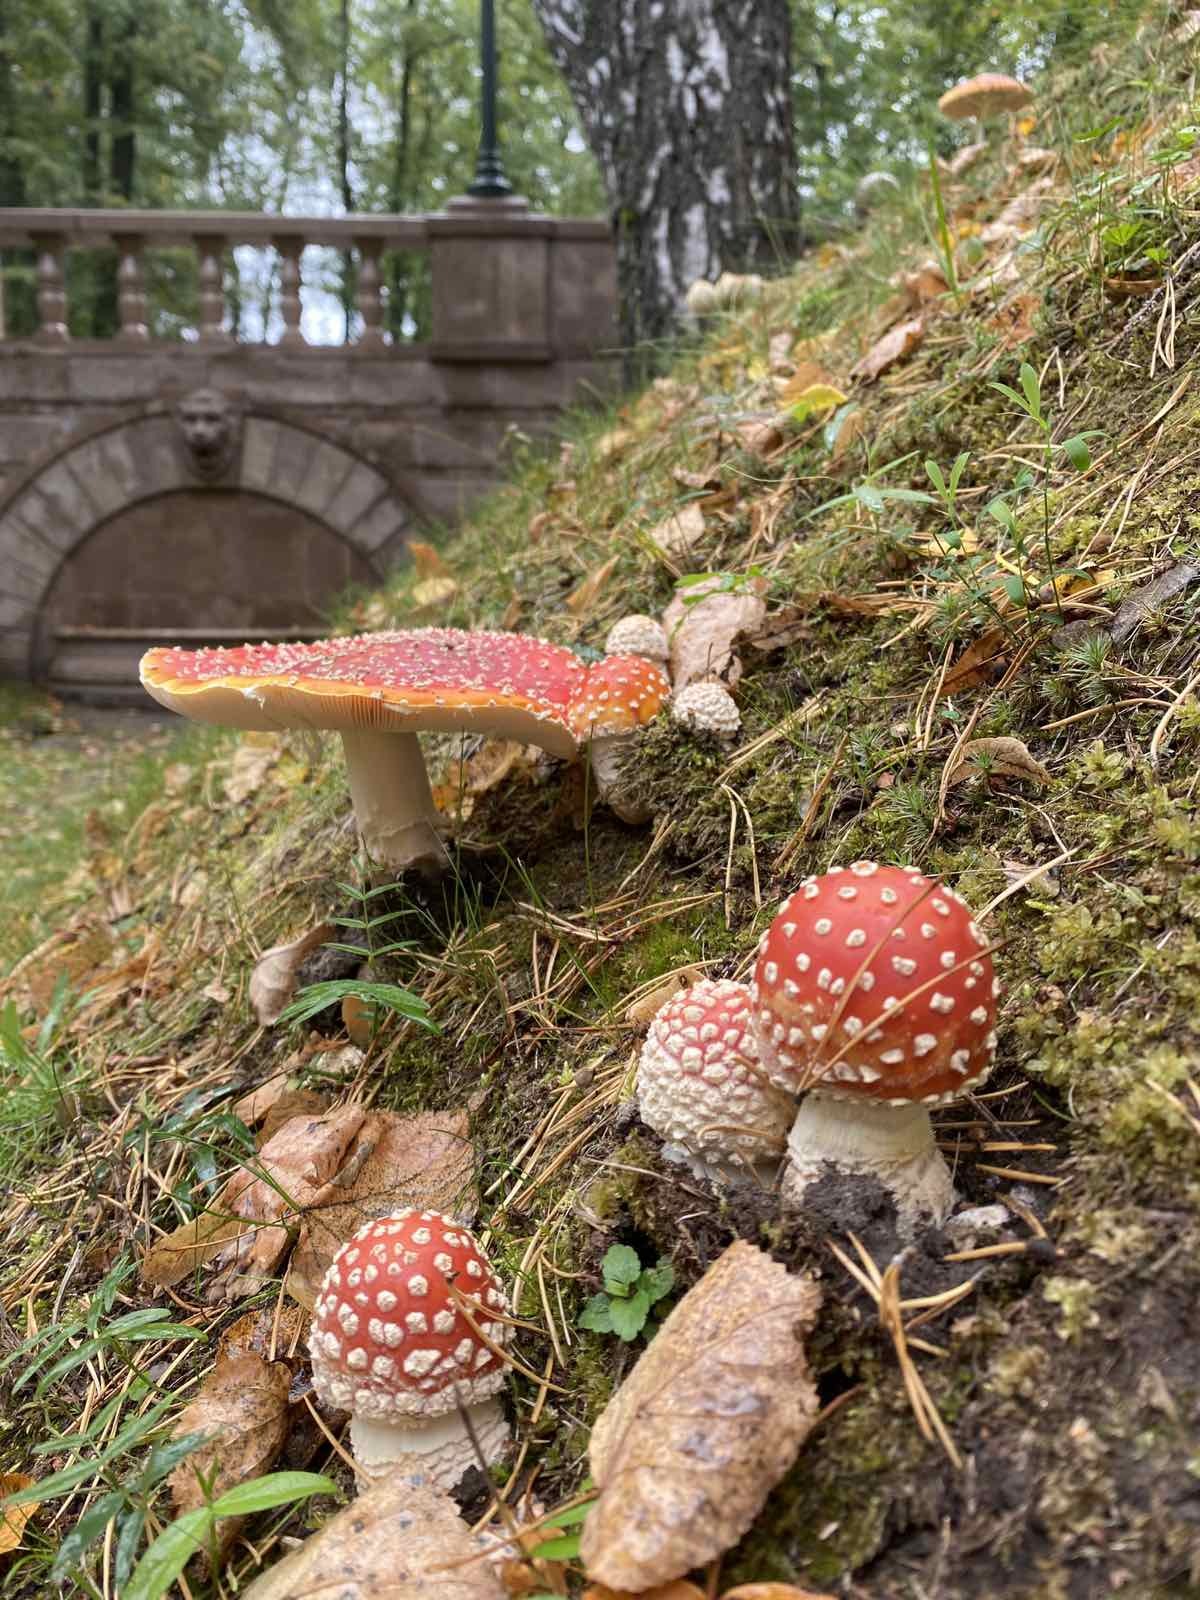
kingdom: Fungi
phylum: Basidiomycota
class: Agaricomycetes
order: Agaricales
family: Amanitaceae
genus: Amanita
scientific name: Amanita muscaria
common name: Fly agaric
